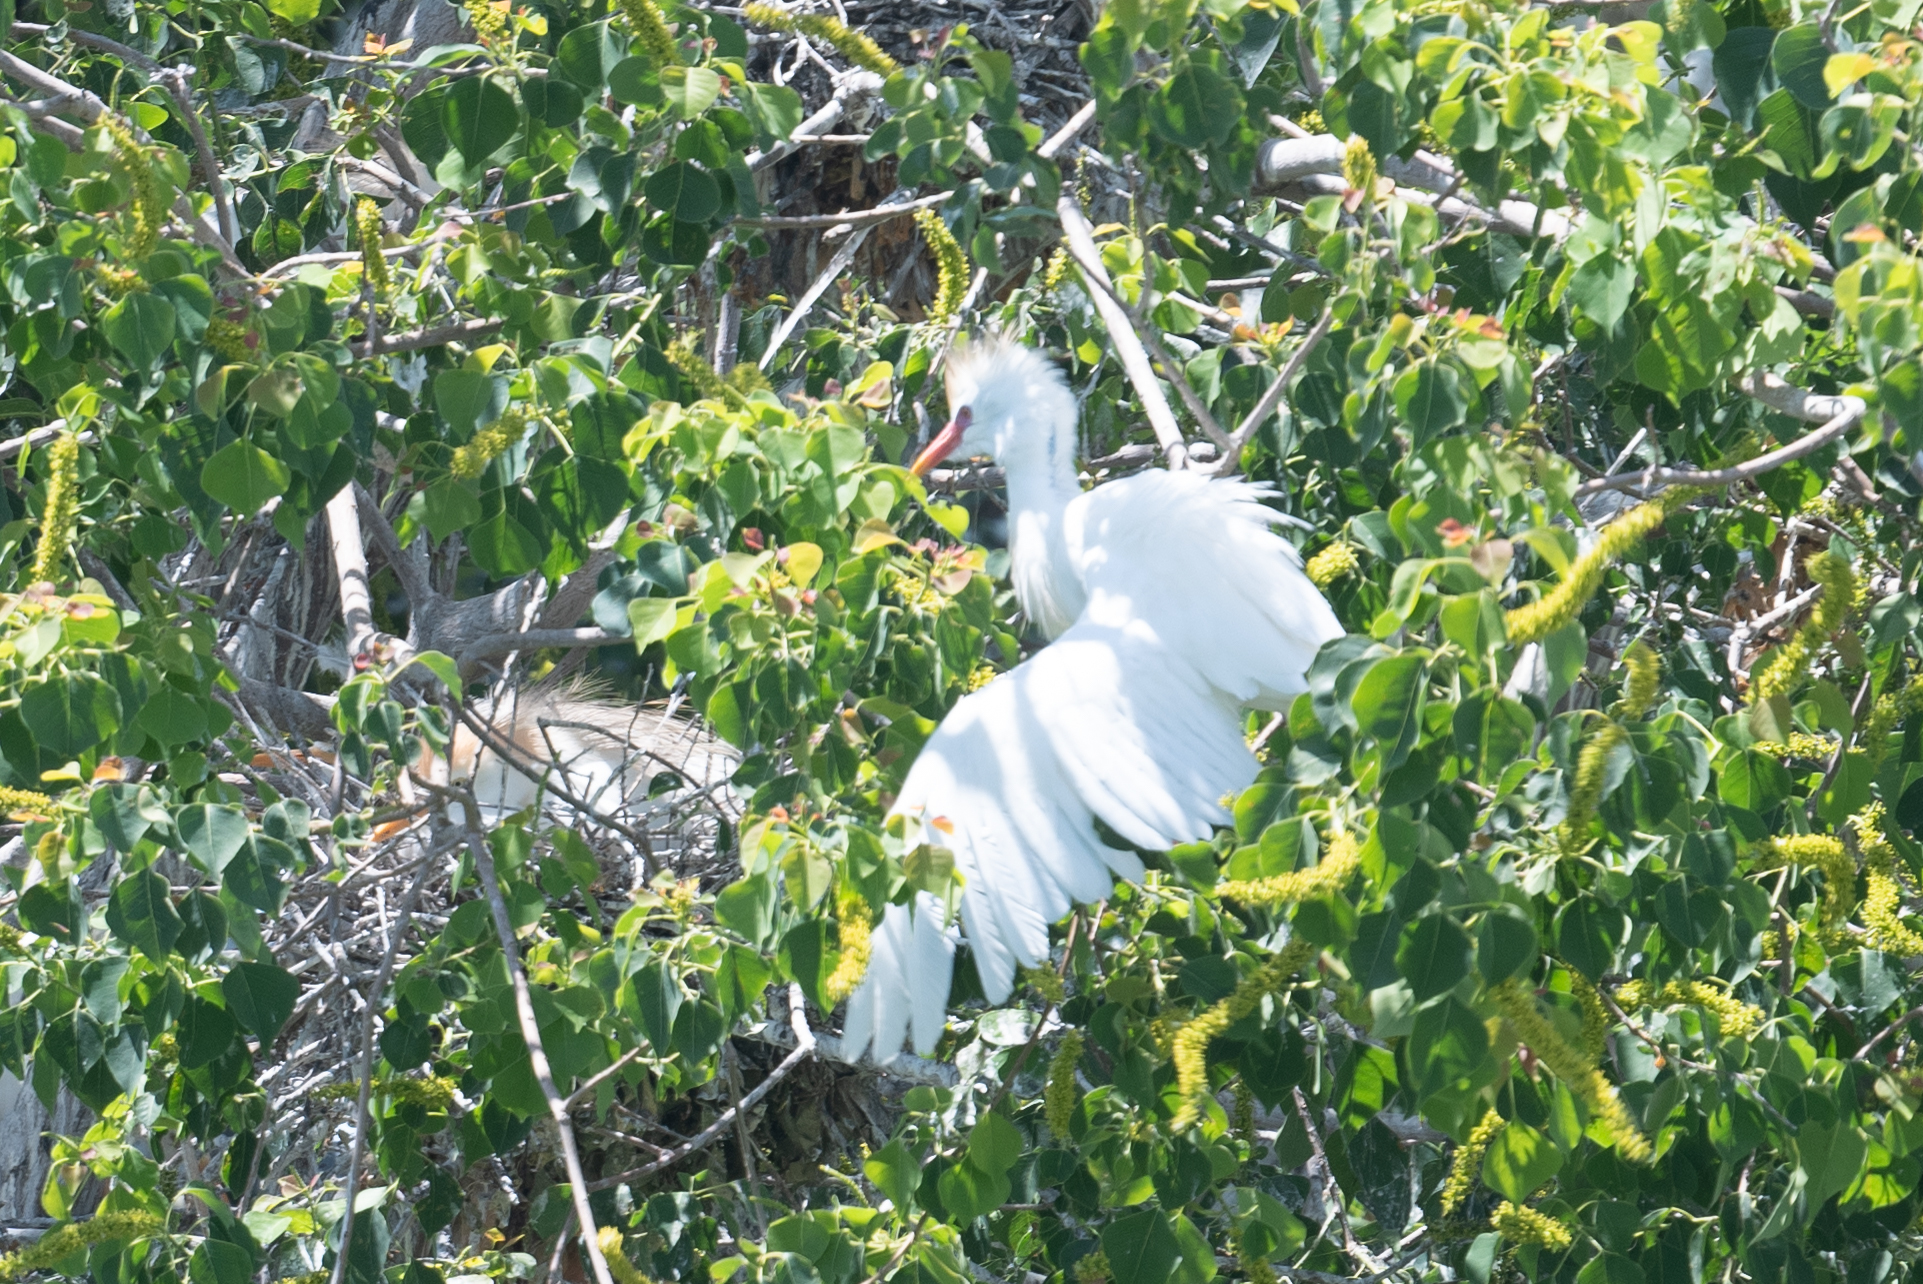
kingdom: Animalia
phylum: Chordata
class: Aves
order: Pelecaniformes
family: Ardeidae
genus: Bubulcus
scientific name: Bubulcus ibis
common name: Cattle egret
